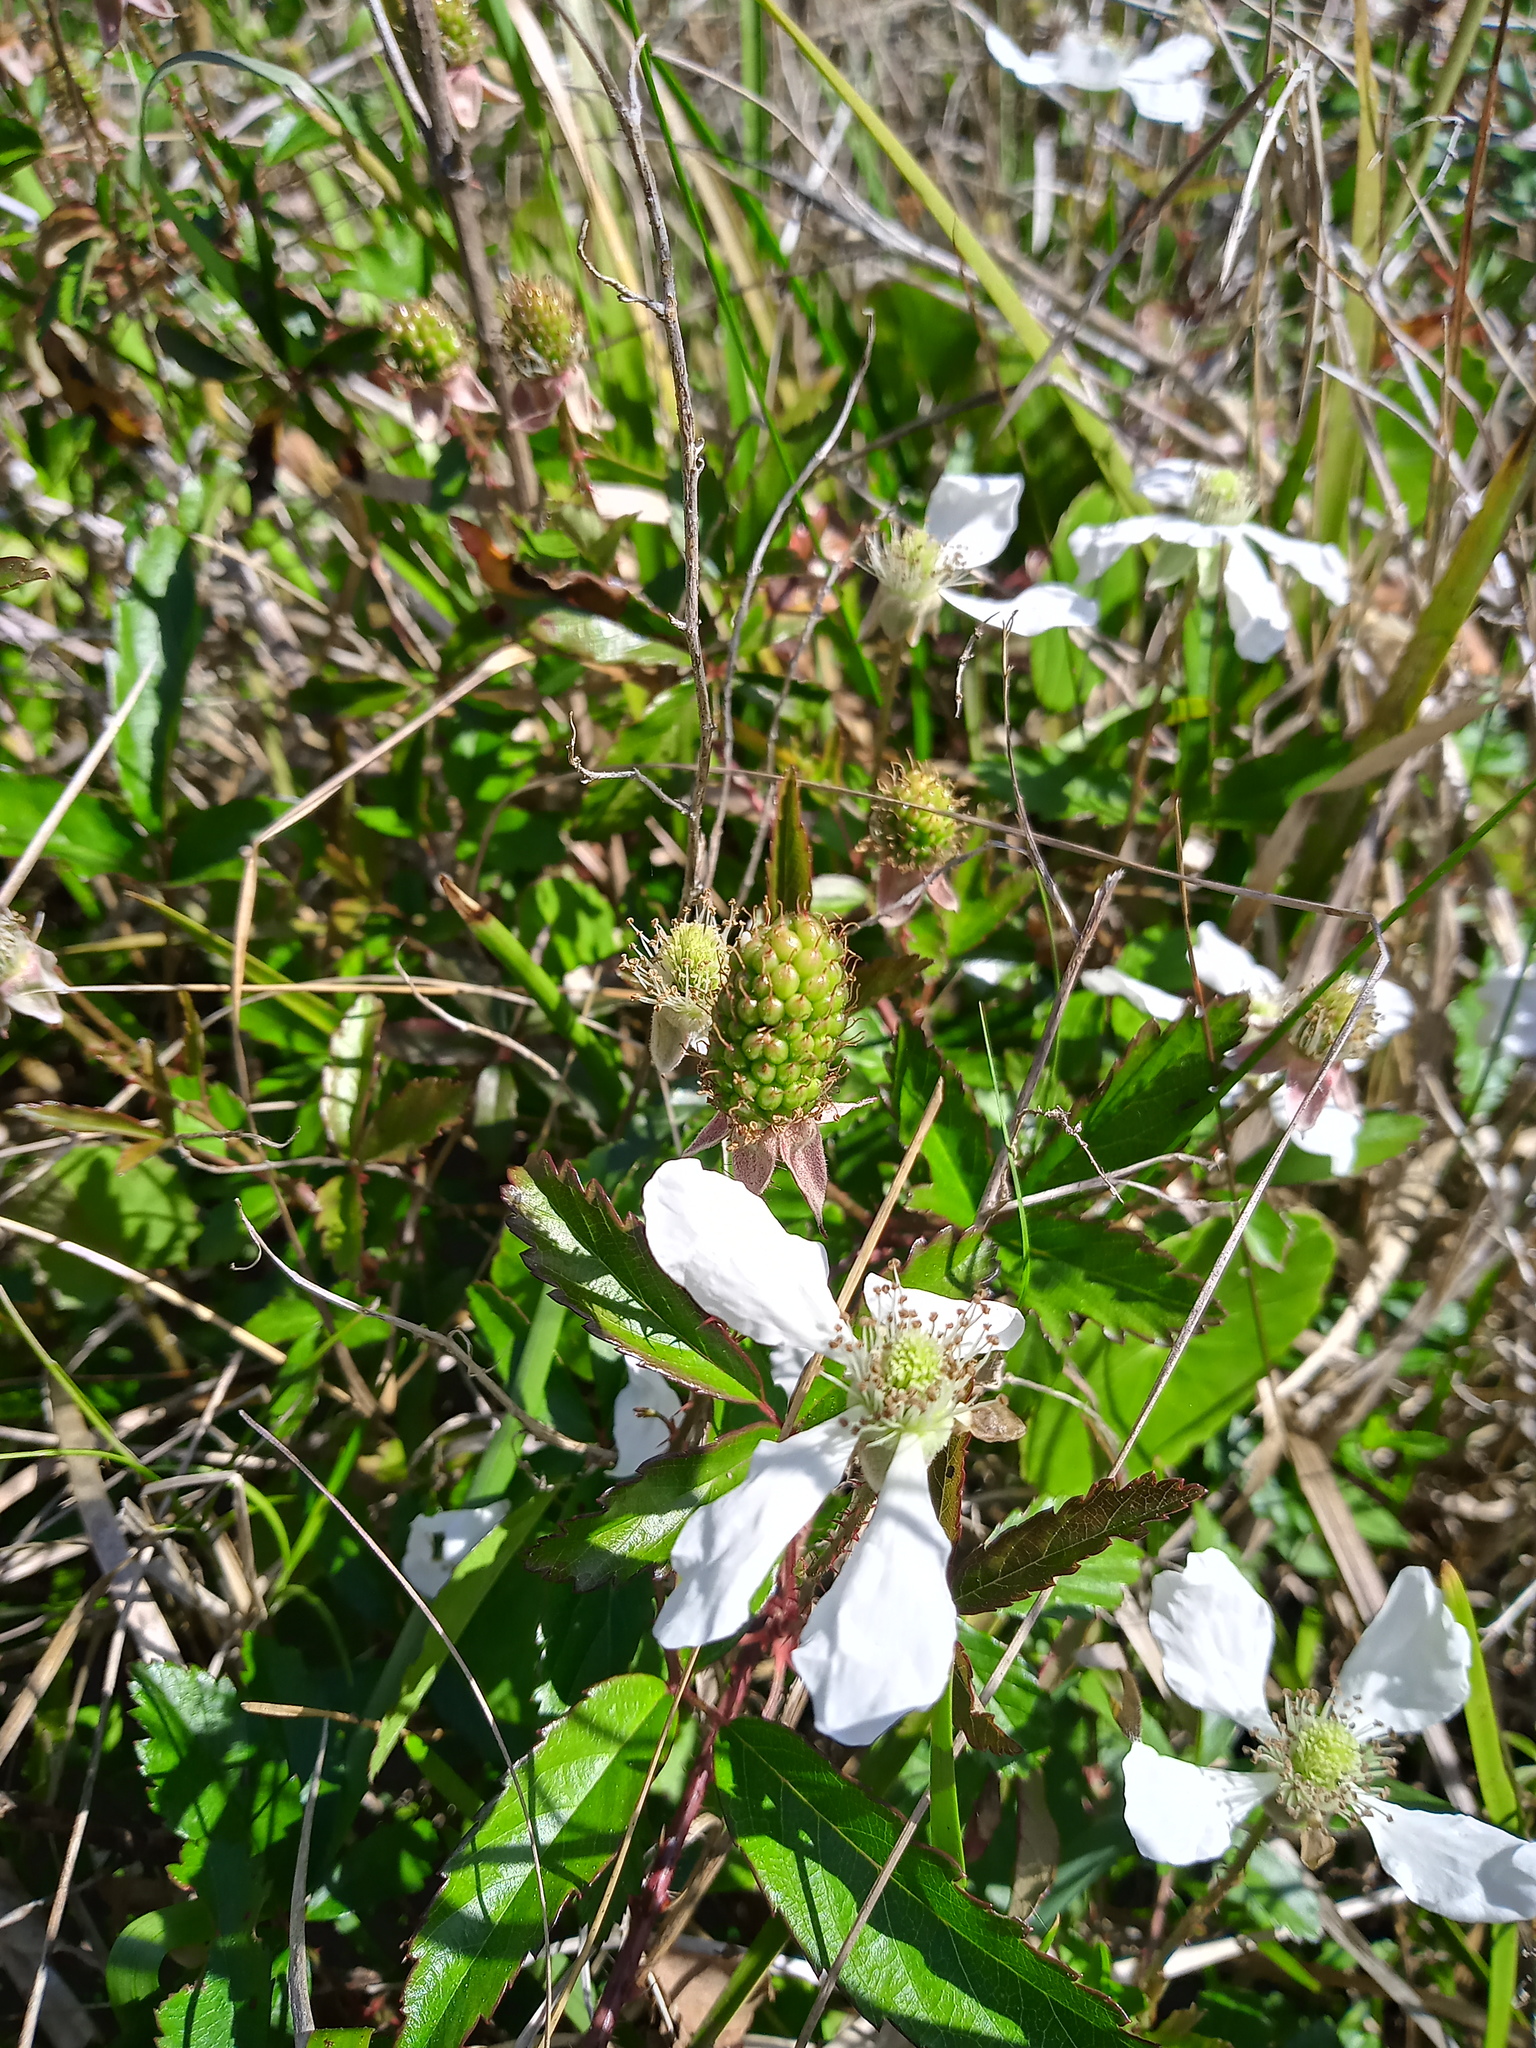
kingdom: Plantae
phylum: Tracheophyta
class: Magnoliopsida
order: Rosales
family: Rosaceae
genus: Rubus
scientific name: Rubus trivialis
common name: Southern dewberry
